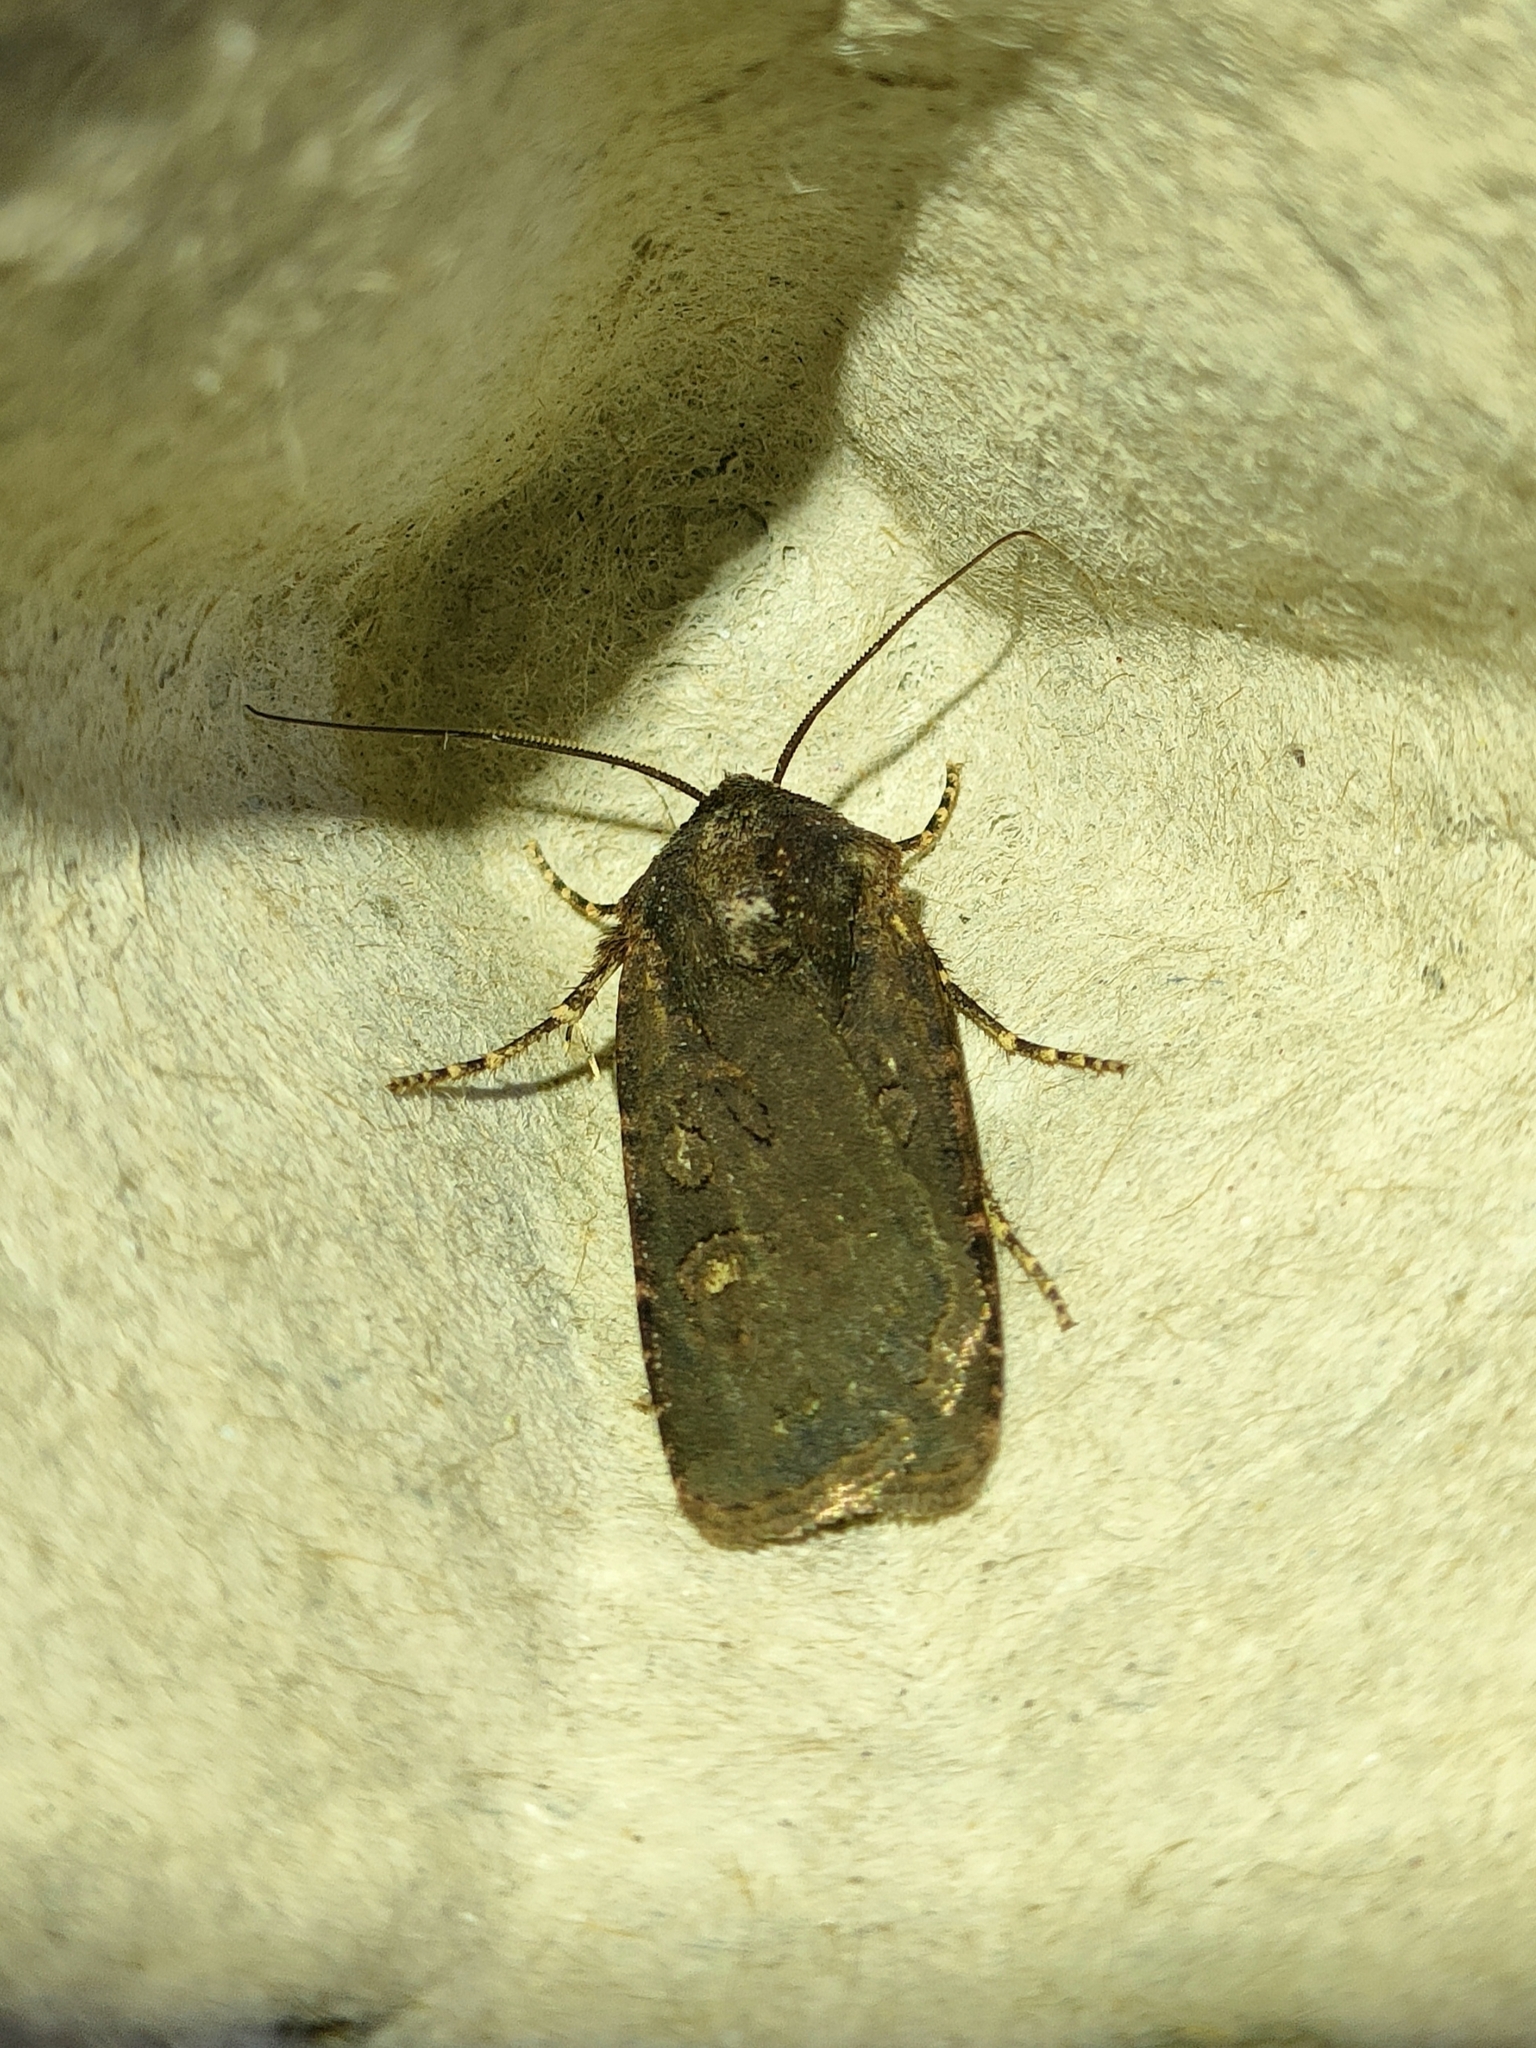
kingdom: Animalia
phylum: Arthropoda
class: Insecta
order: Lepidoptera
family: Noctuidae
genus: Euxoa
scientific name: Euxoa nigricans
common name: Garden dart
